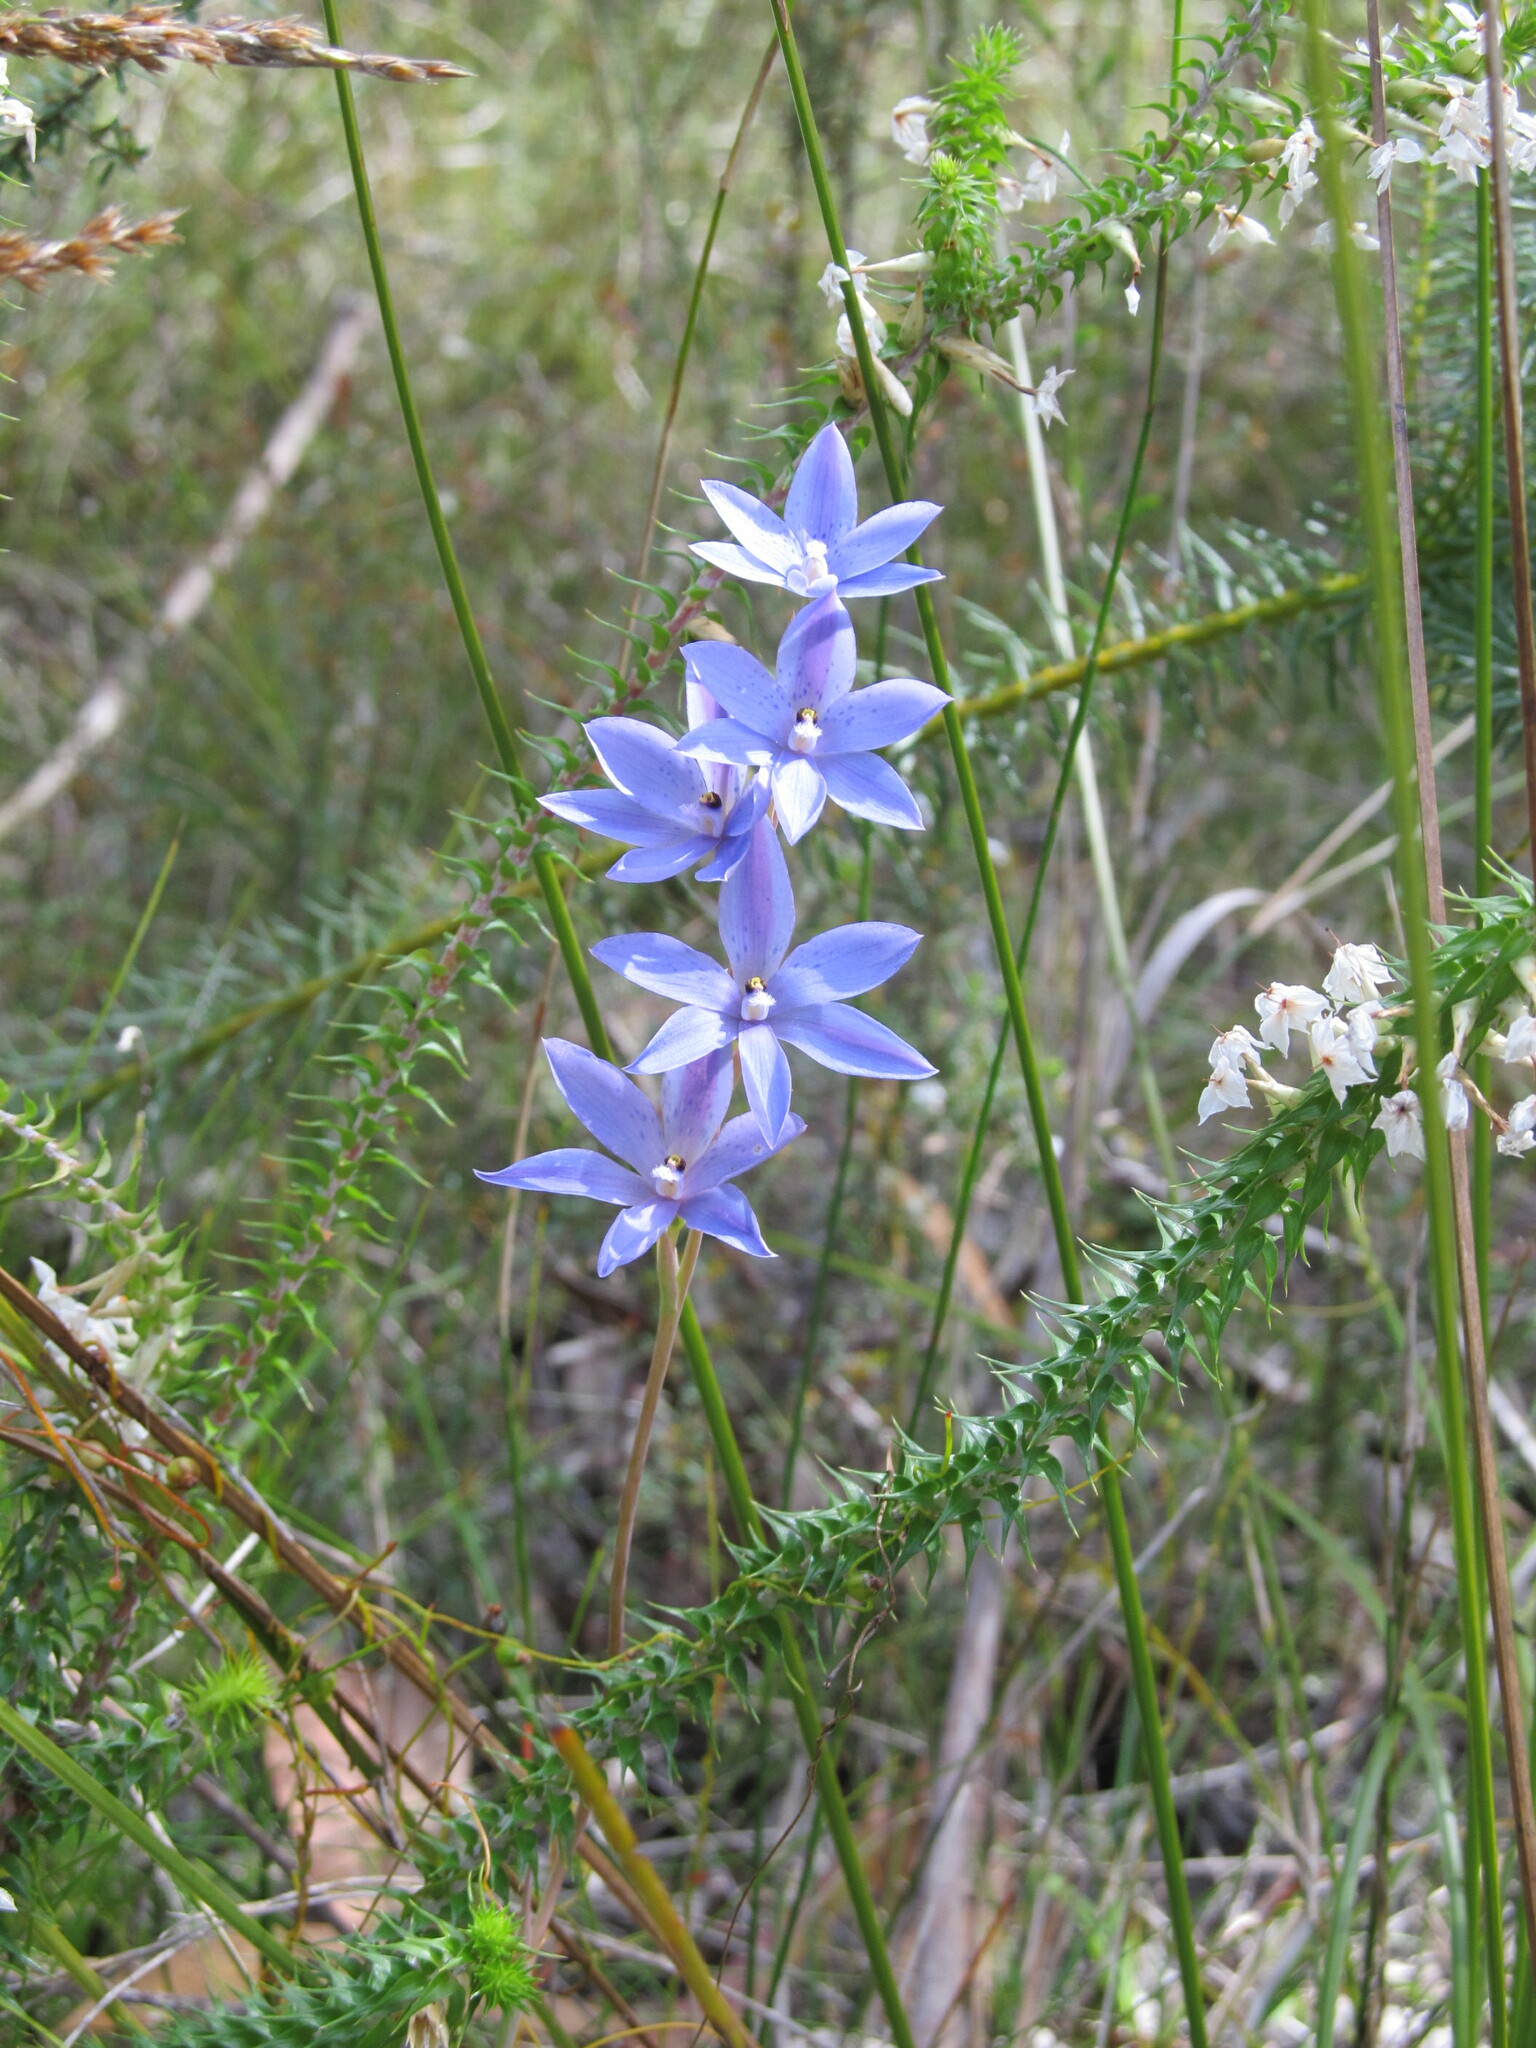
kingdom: Plantae
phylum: Tracheophyta
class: Liliopsida
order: Asparagales
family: Orchidaceae
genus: Thelymitra
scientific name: Thelymitra ixioides
